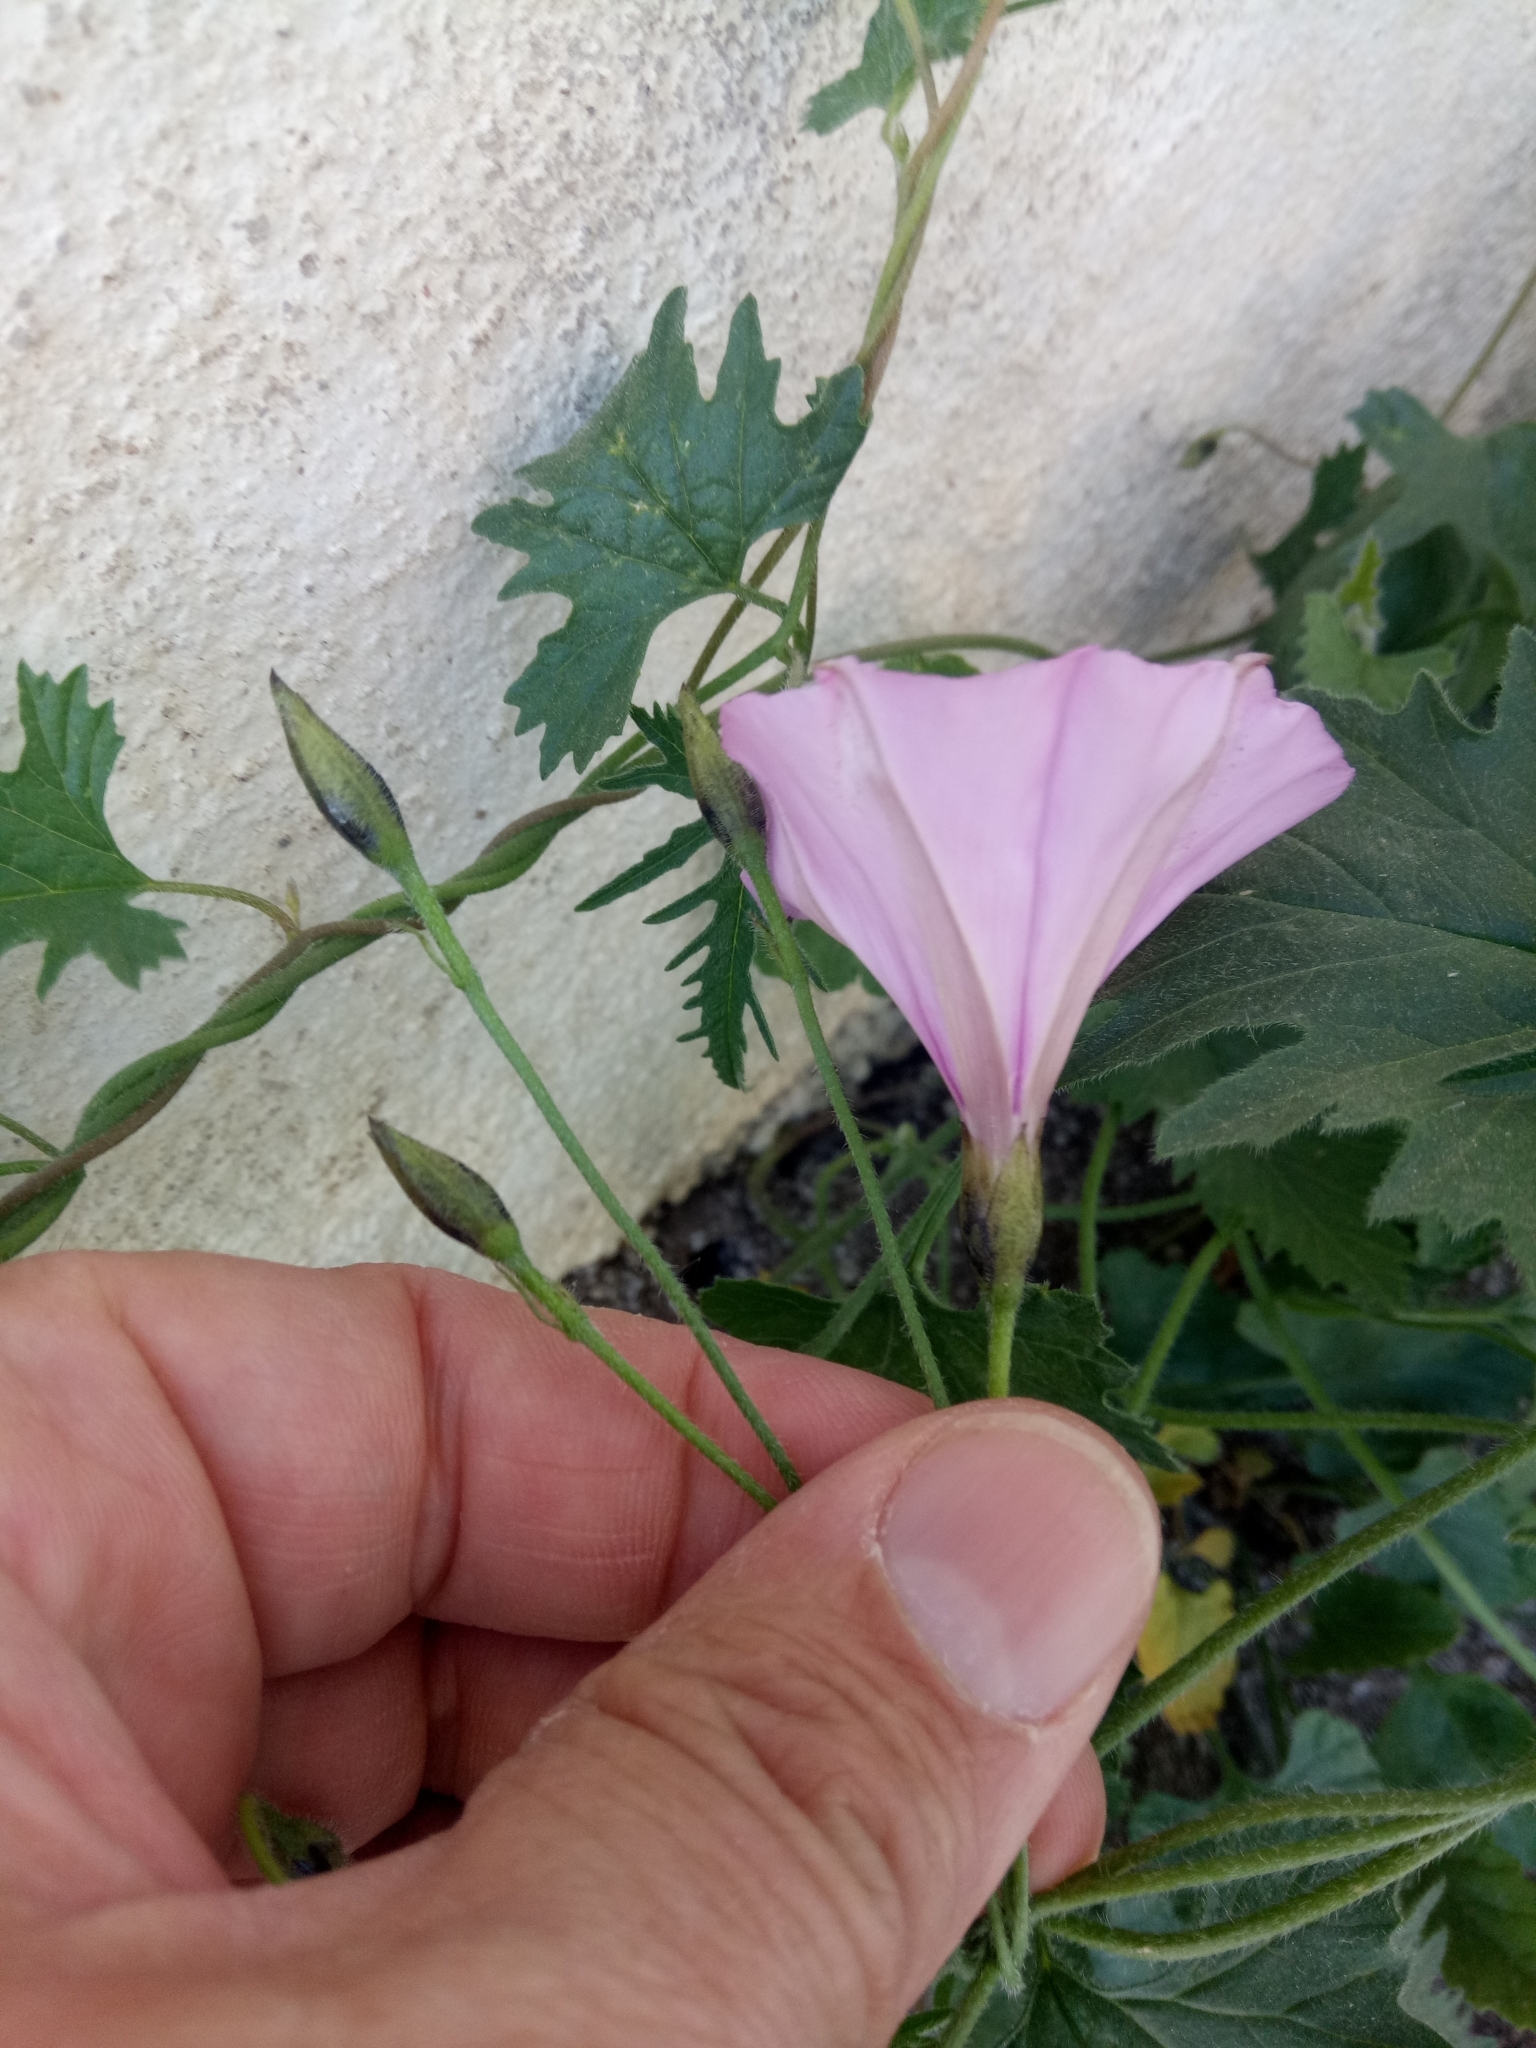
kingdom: Plantae
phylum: Tracheophyta
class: Magnoliopsida
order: Solanales
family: Convolvulaceae
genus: Convolvulus
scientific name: Convolvulus althaeoides
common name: Mallow bindweed
